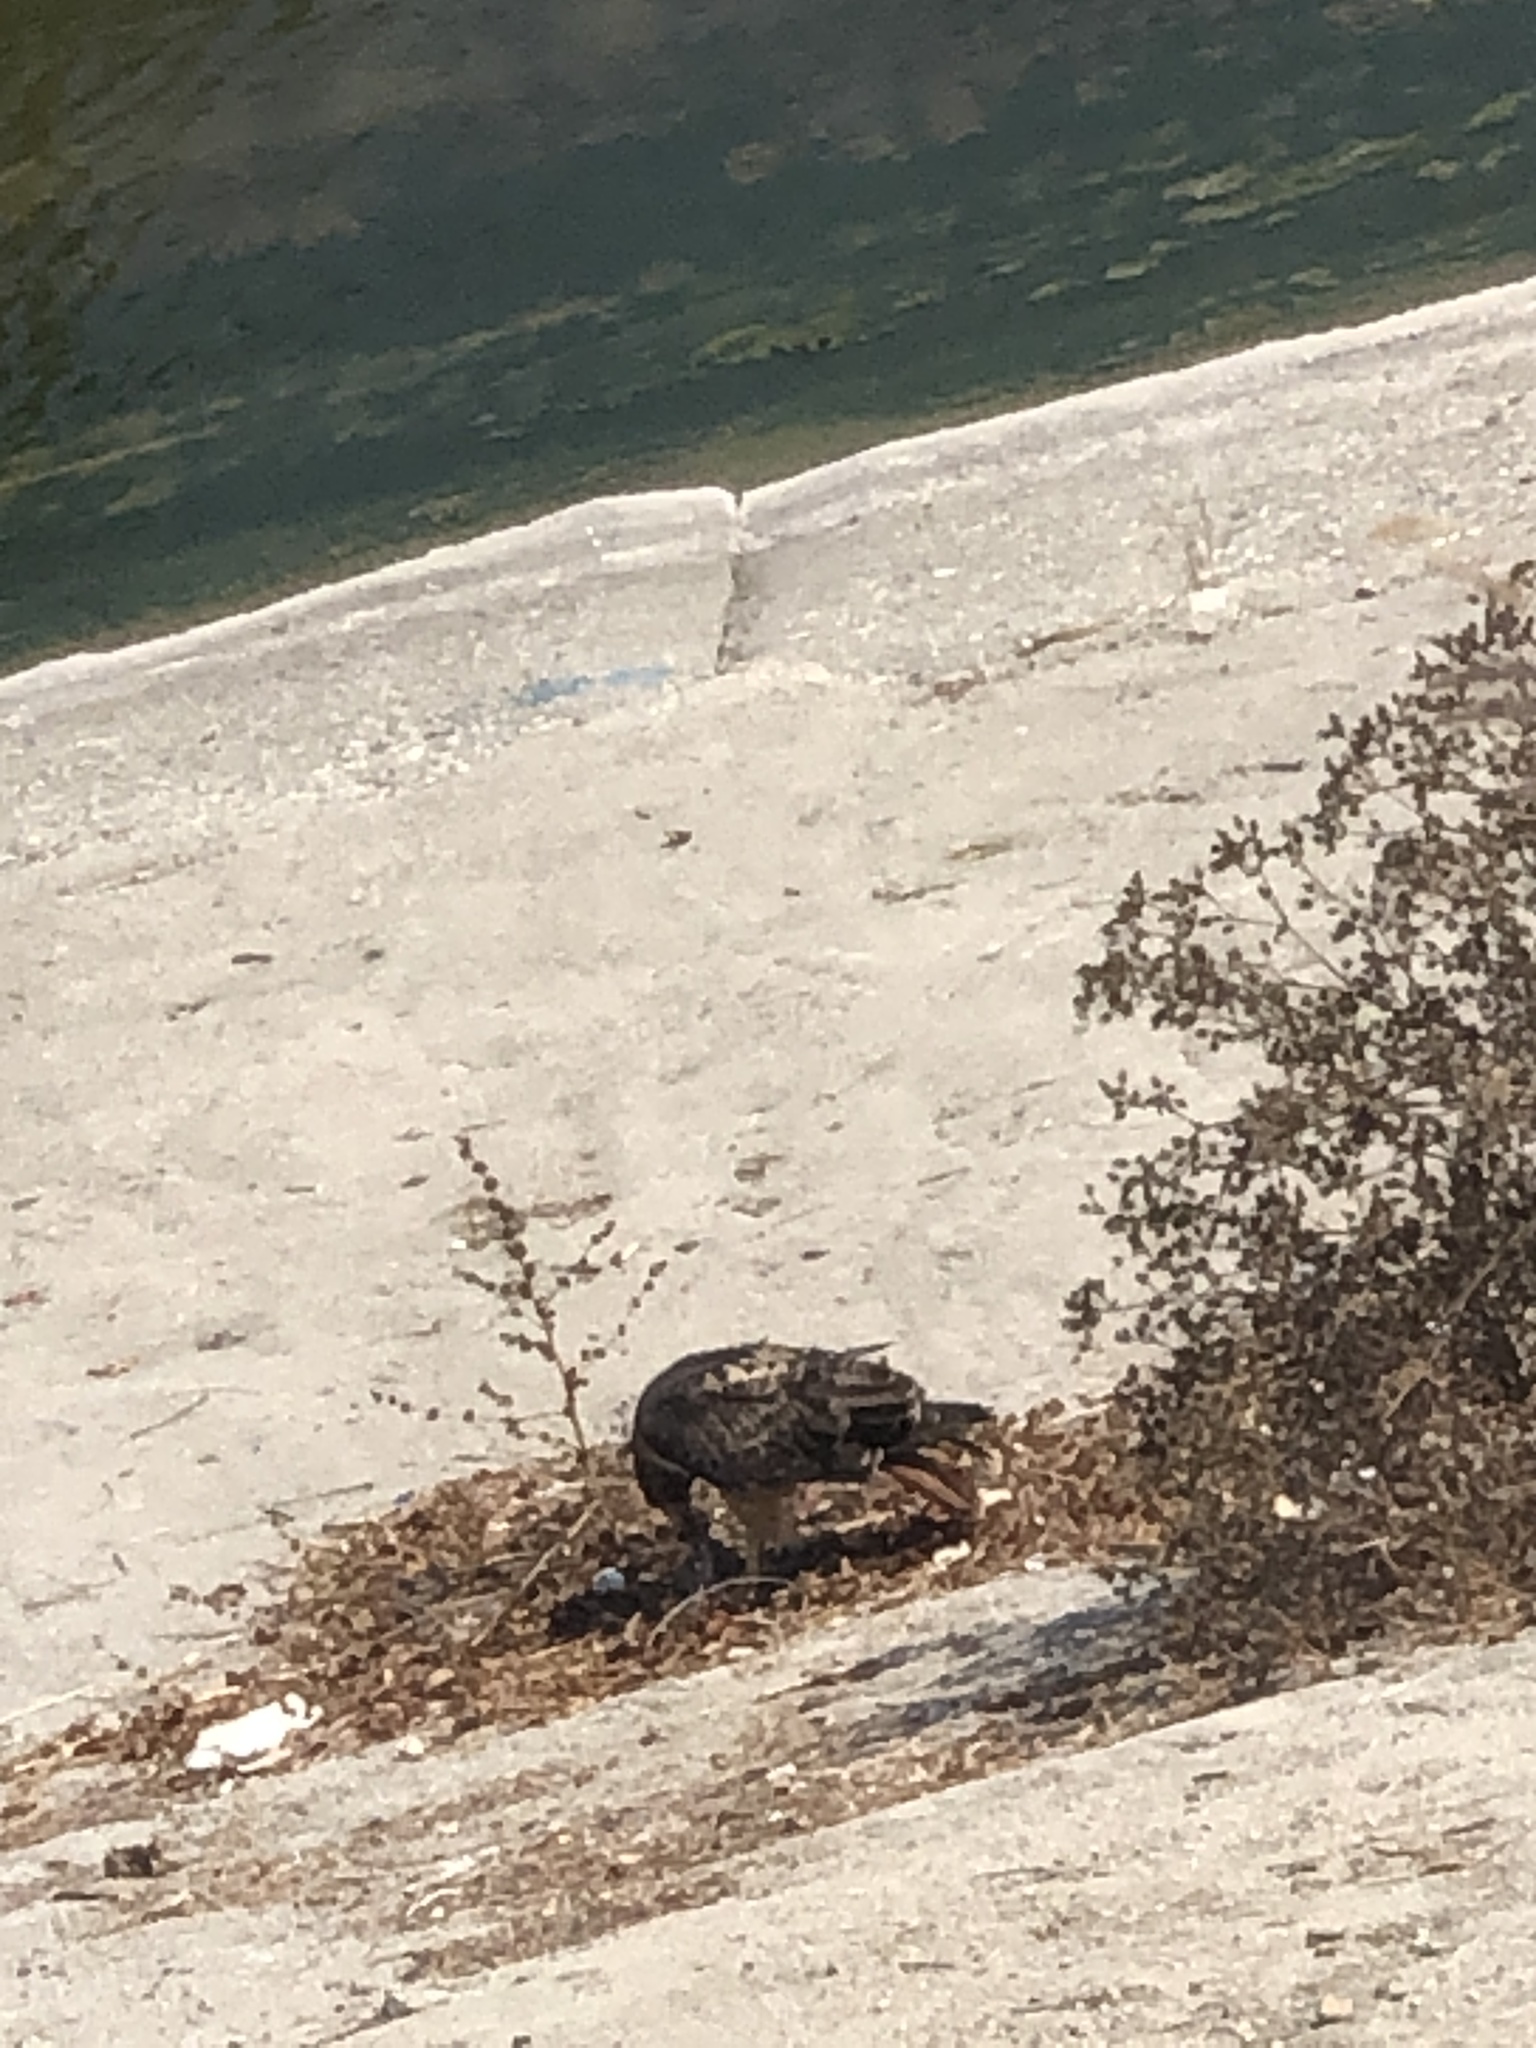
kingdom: Animalia
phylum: Chordata
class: Aves
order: Accipitriformes
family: Accipitridae
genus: Buteo
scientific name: Buteo jamaicensis
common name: Red-tailed hawk
